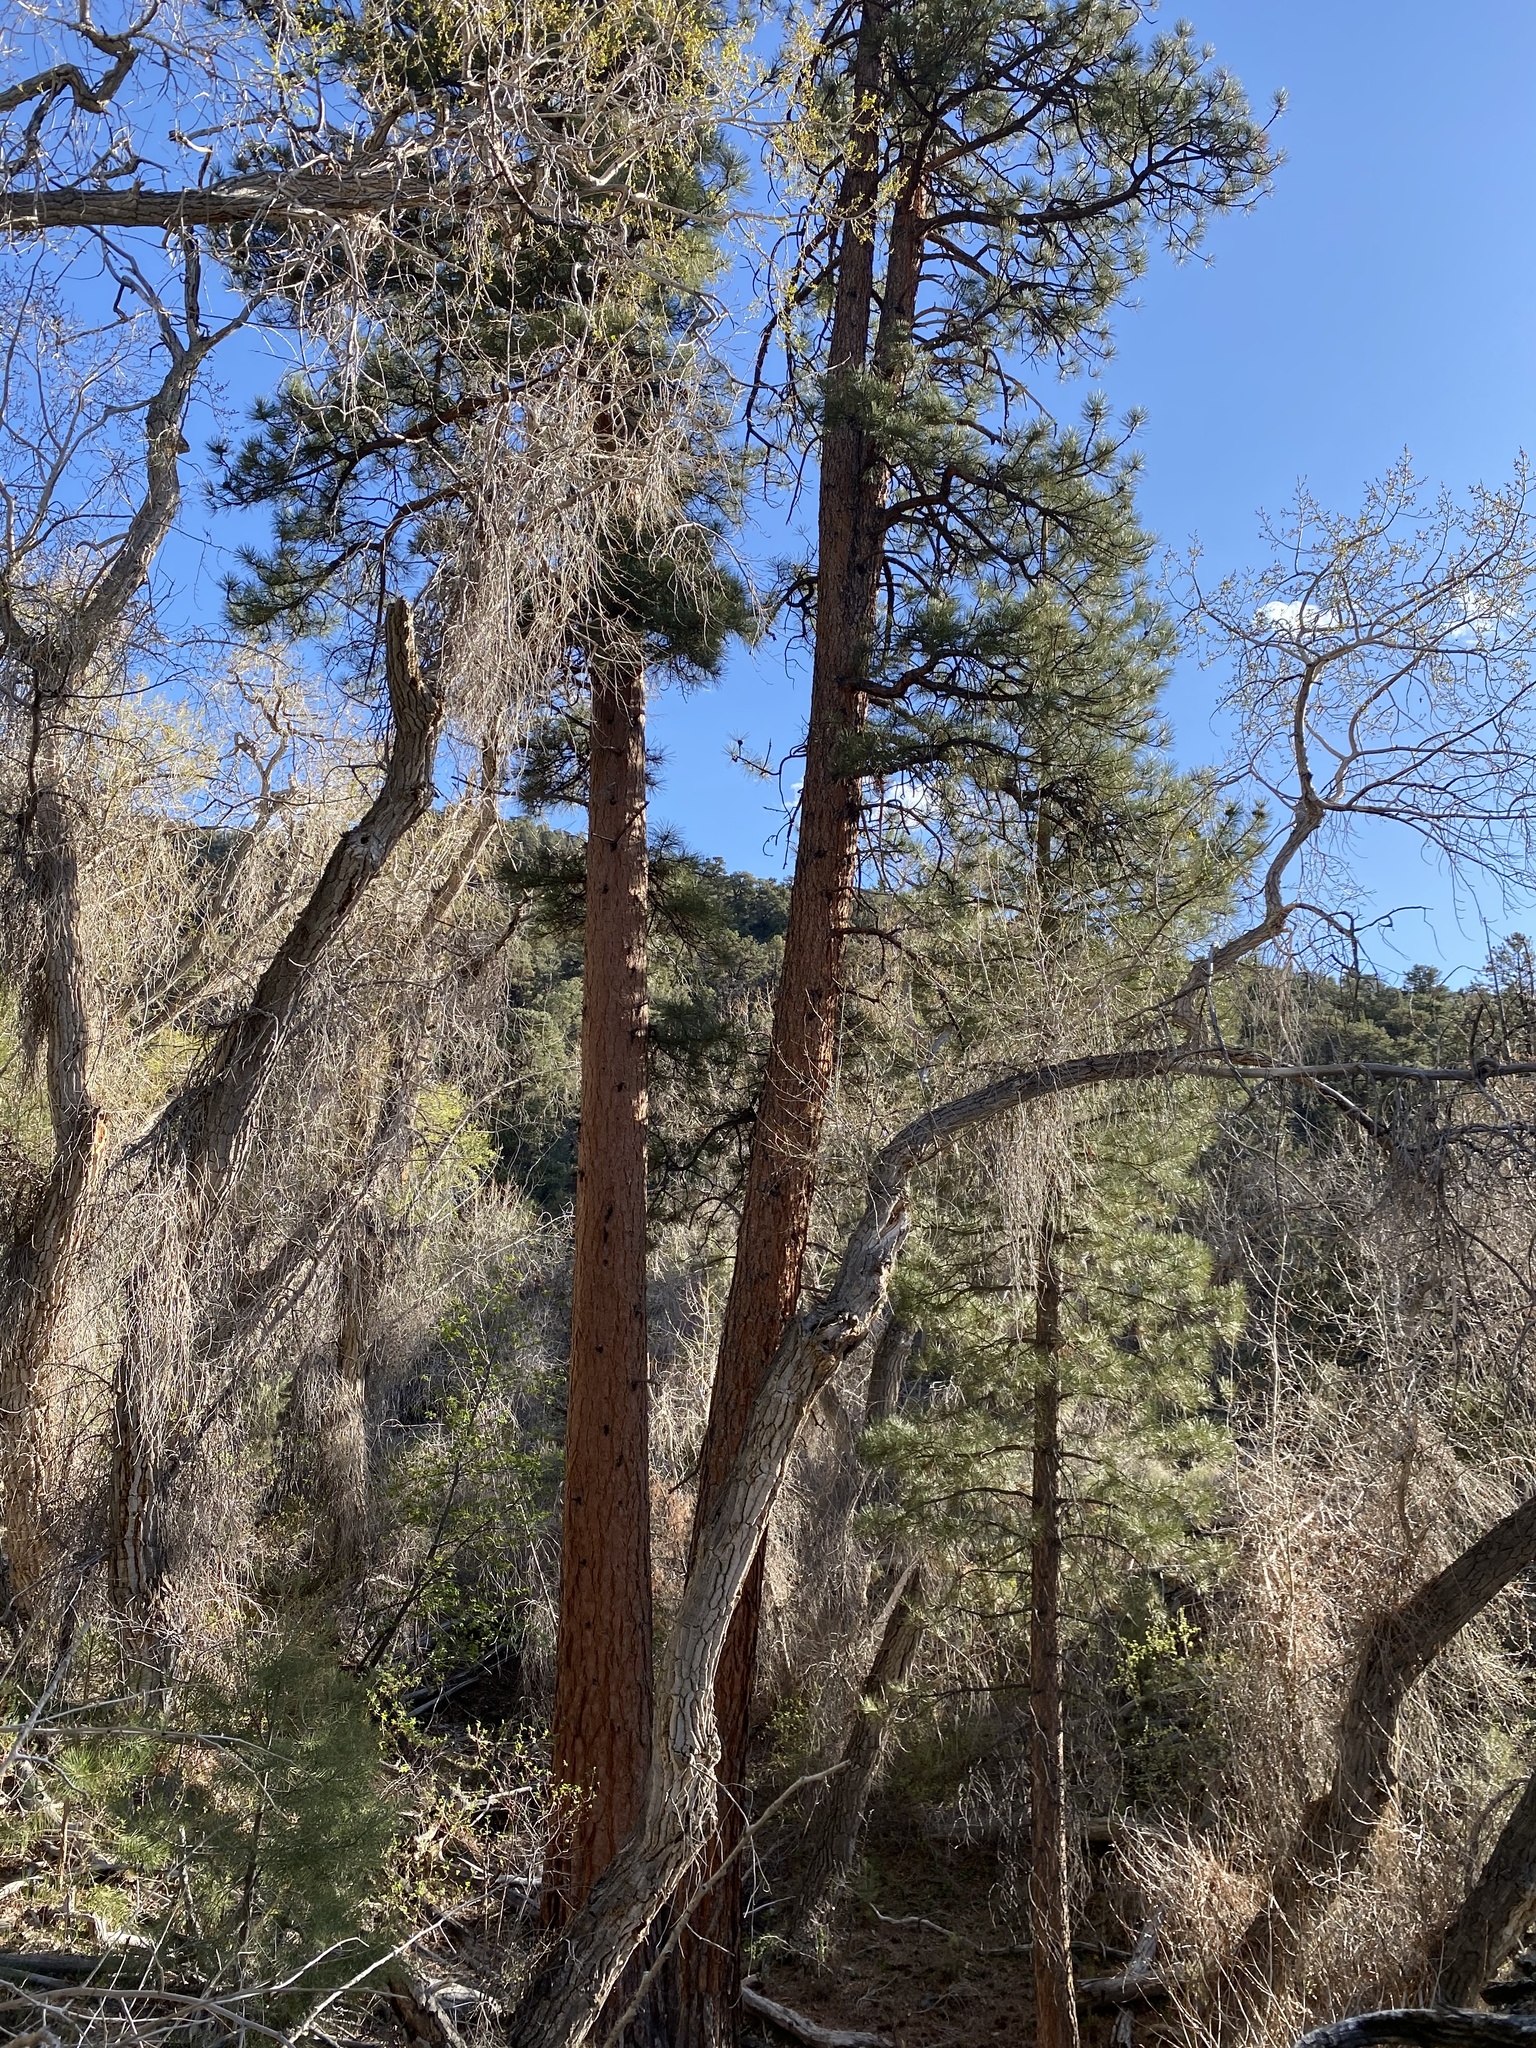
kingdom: Plantae
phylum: Tracheophyta
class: Pinopsida
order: Pinales
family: Pinaceae
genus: Pinus
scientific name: Pinus ponderosa
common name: Western yellow-pine
